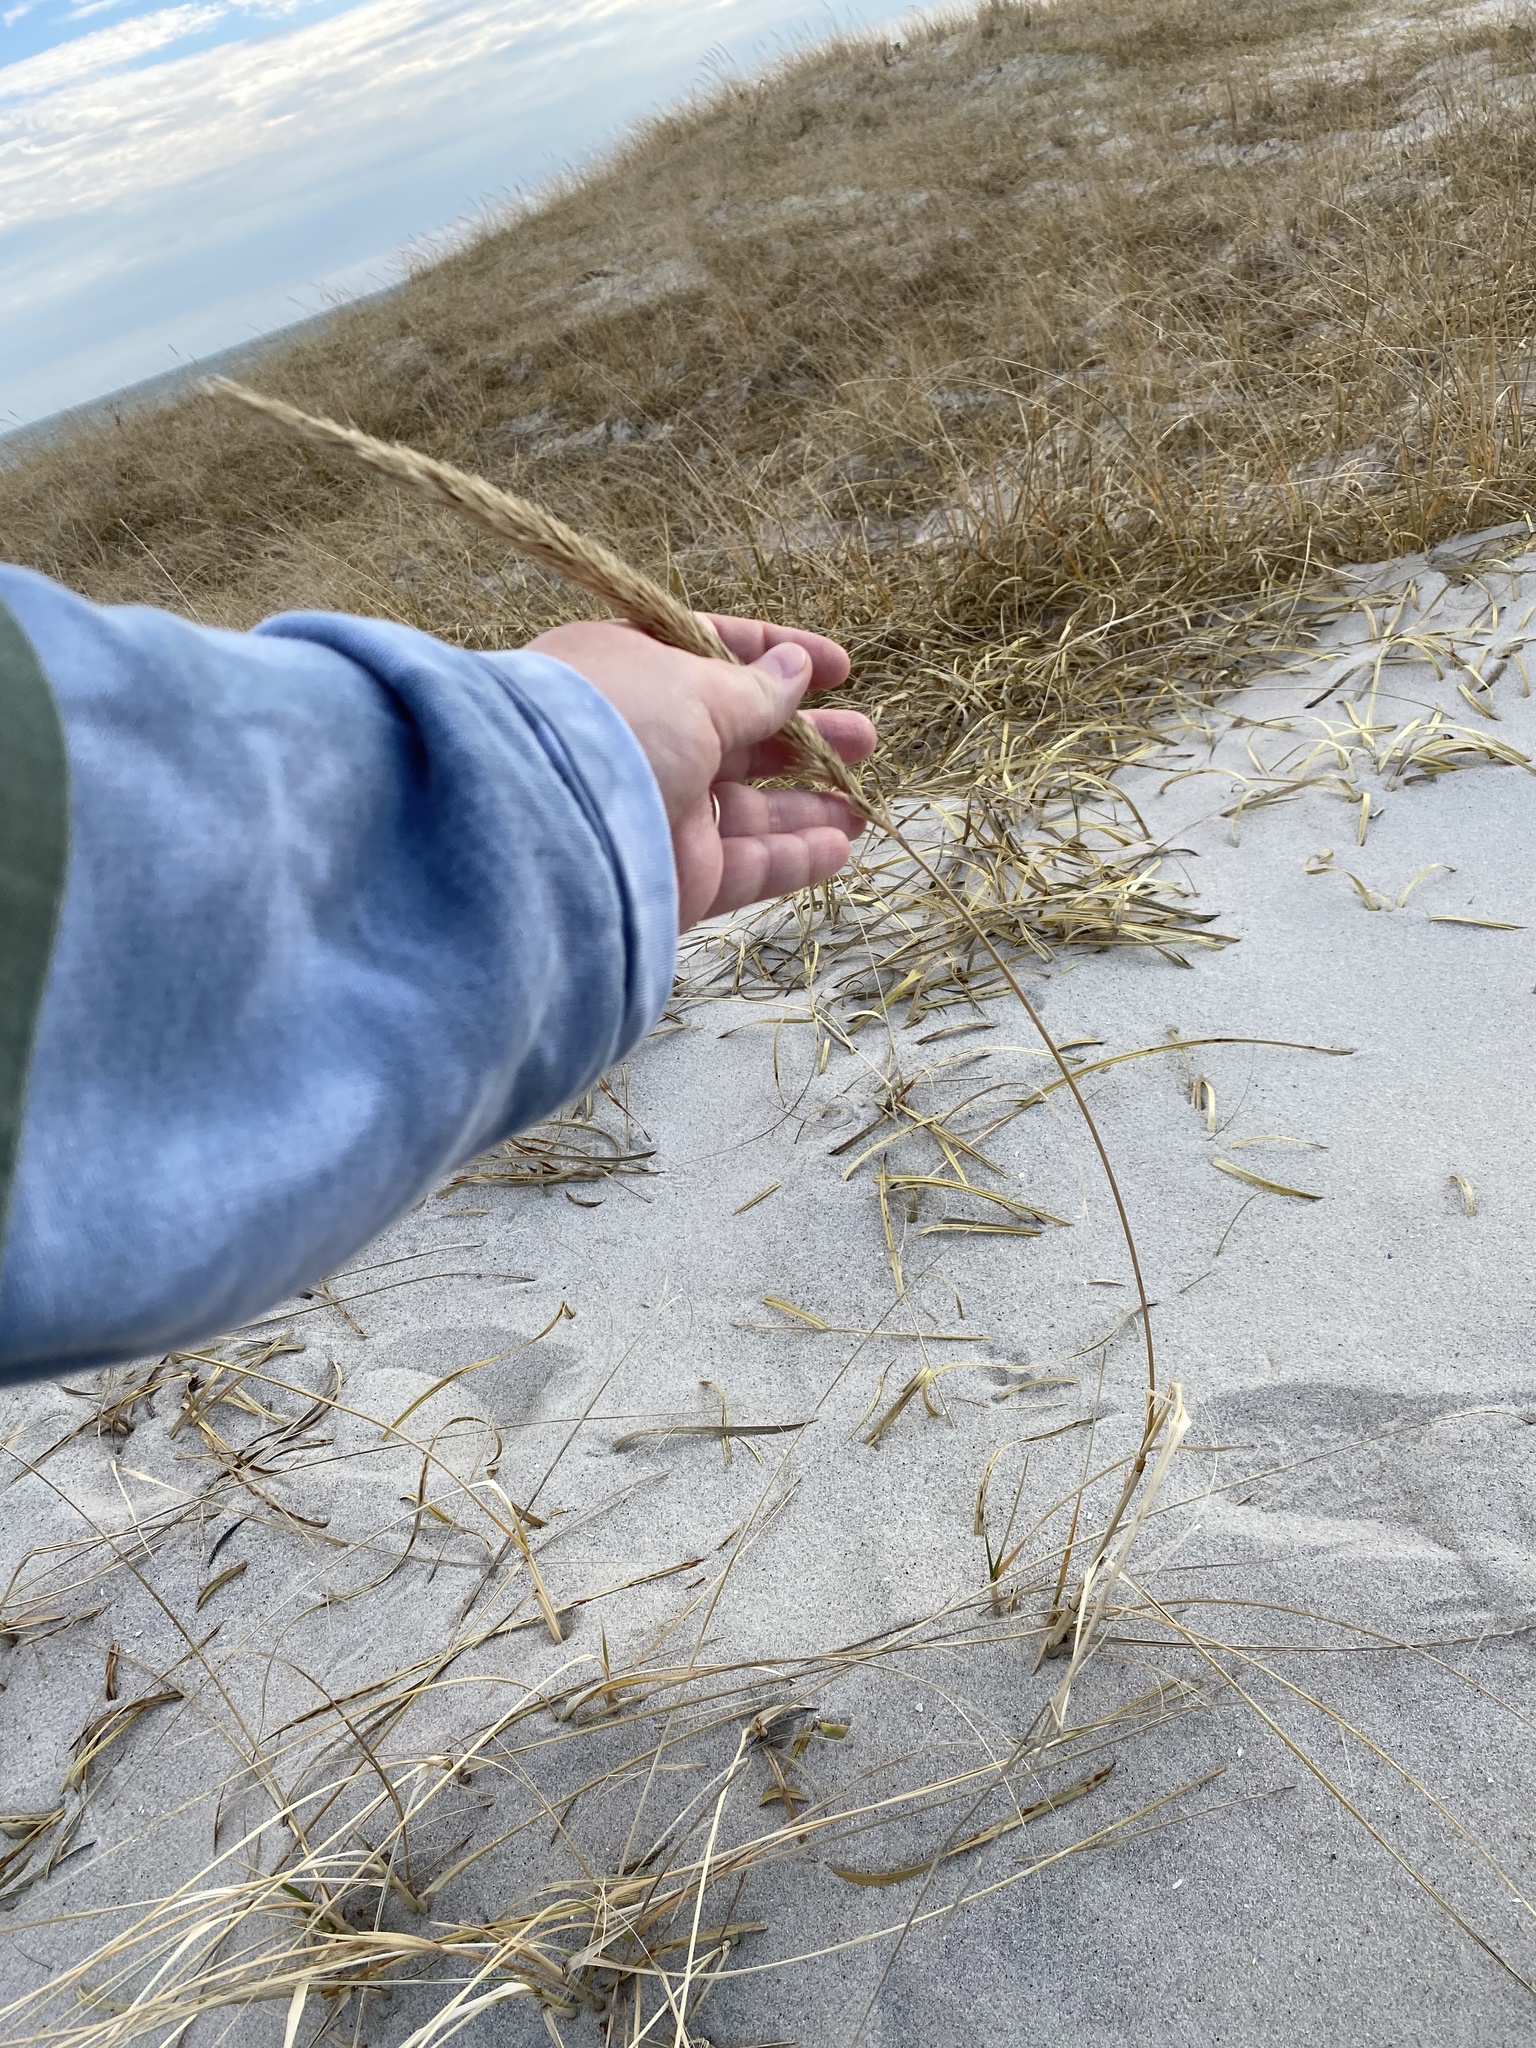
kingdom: Plantae
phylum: Tracheophyta
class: Liliopsida
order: Poales
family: Poaceae
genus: Calamagrostis
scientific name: Calamagrostis breviligulata
